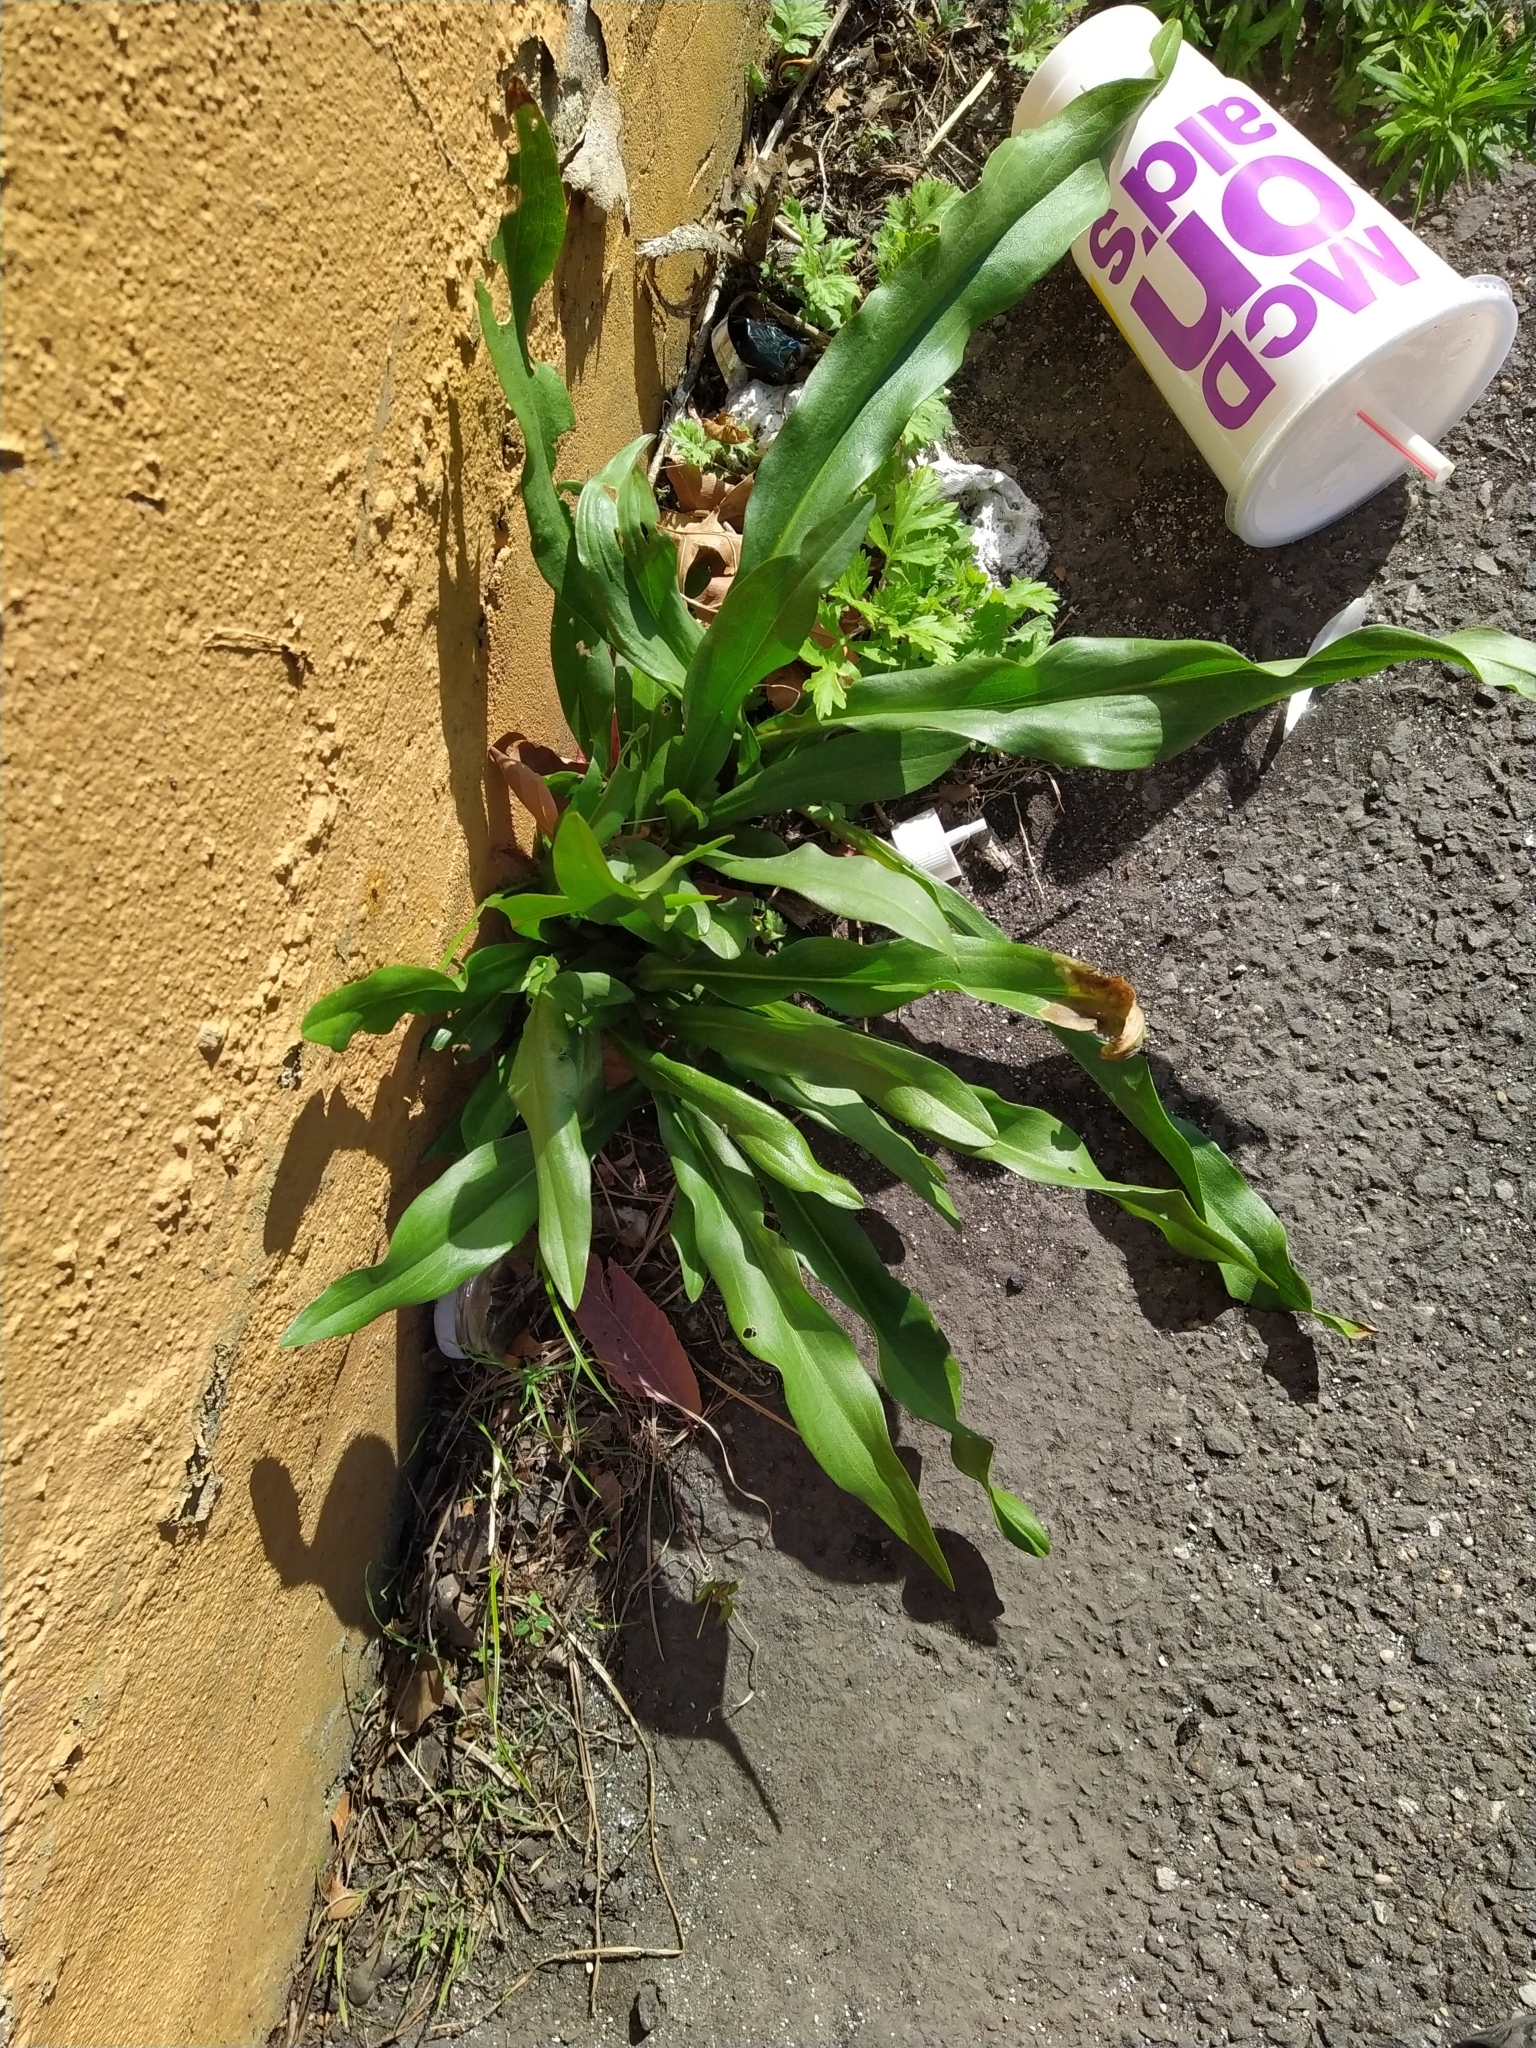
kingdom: Plantae
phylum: Tracheophyta
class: Magnoliopsida
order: Asterales
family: Asteraceae
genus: Solidago
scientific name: Solidago sempervirens
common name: Salt-marsh goldenrod
